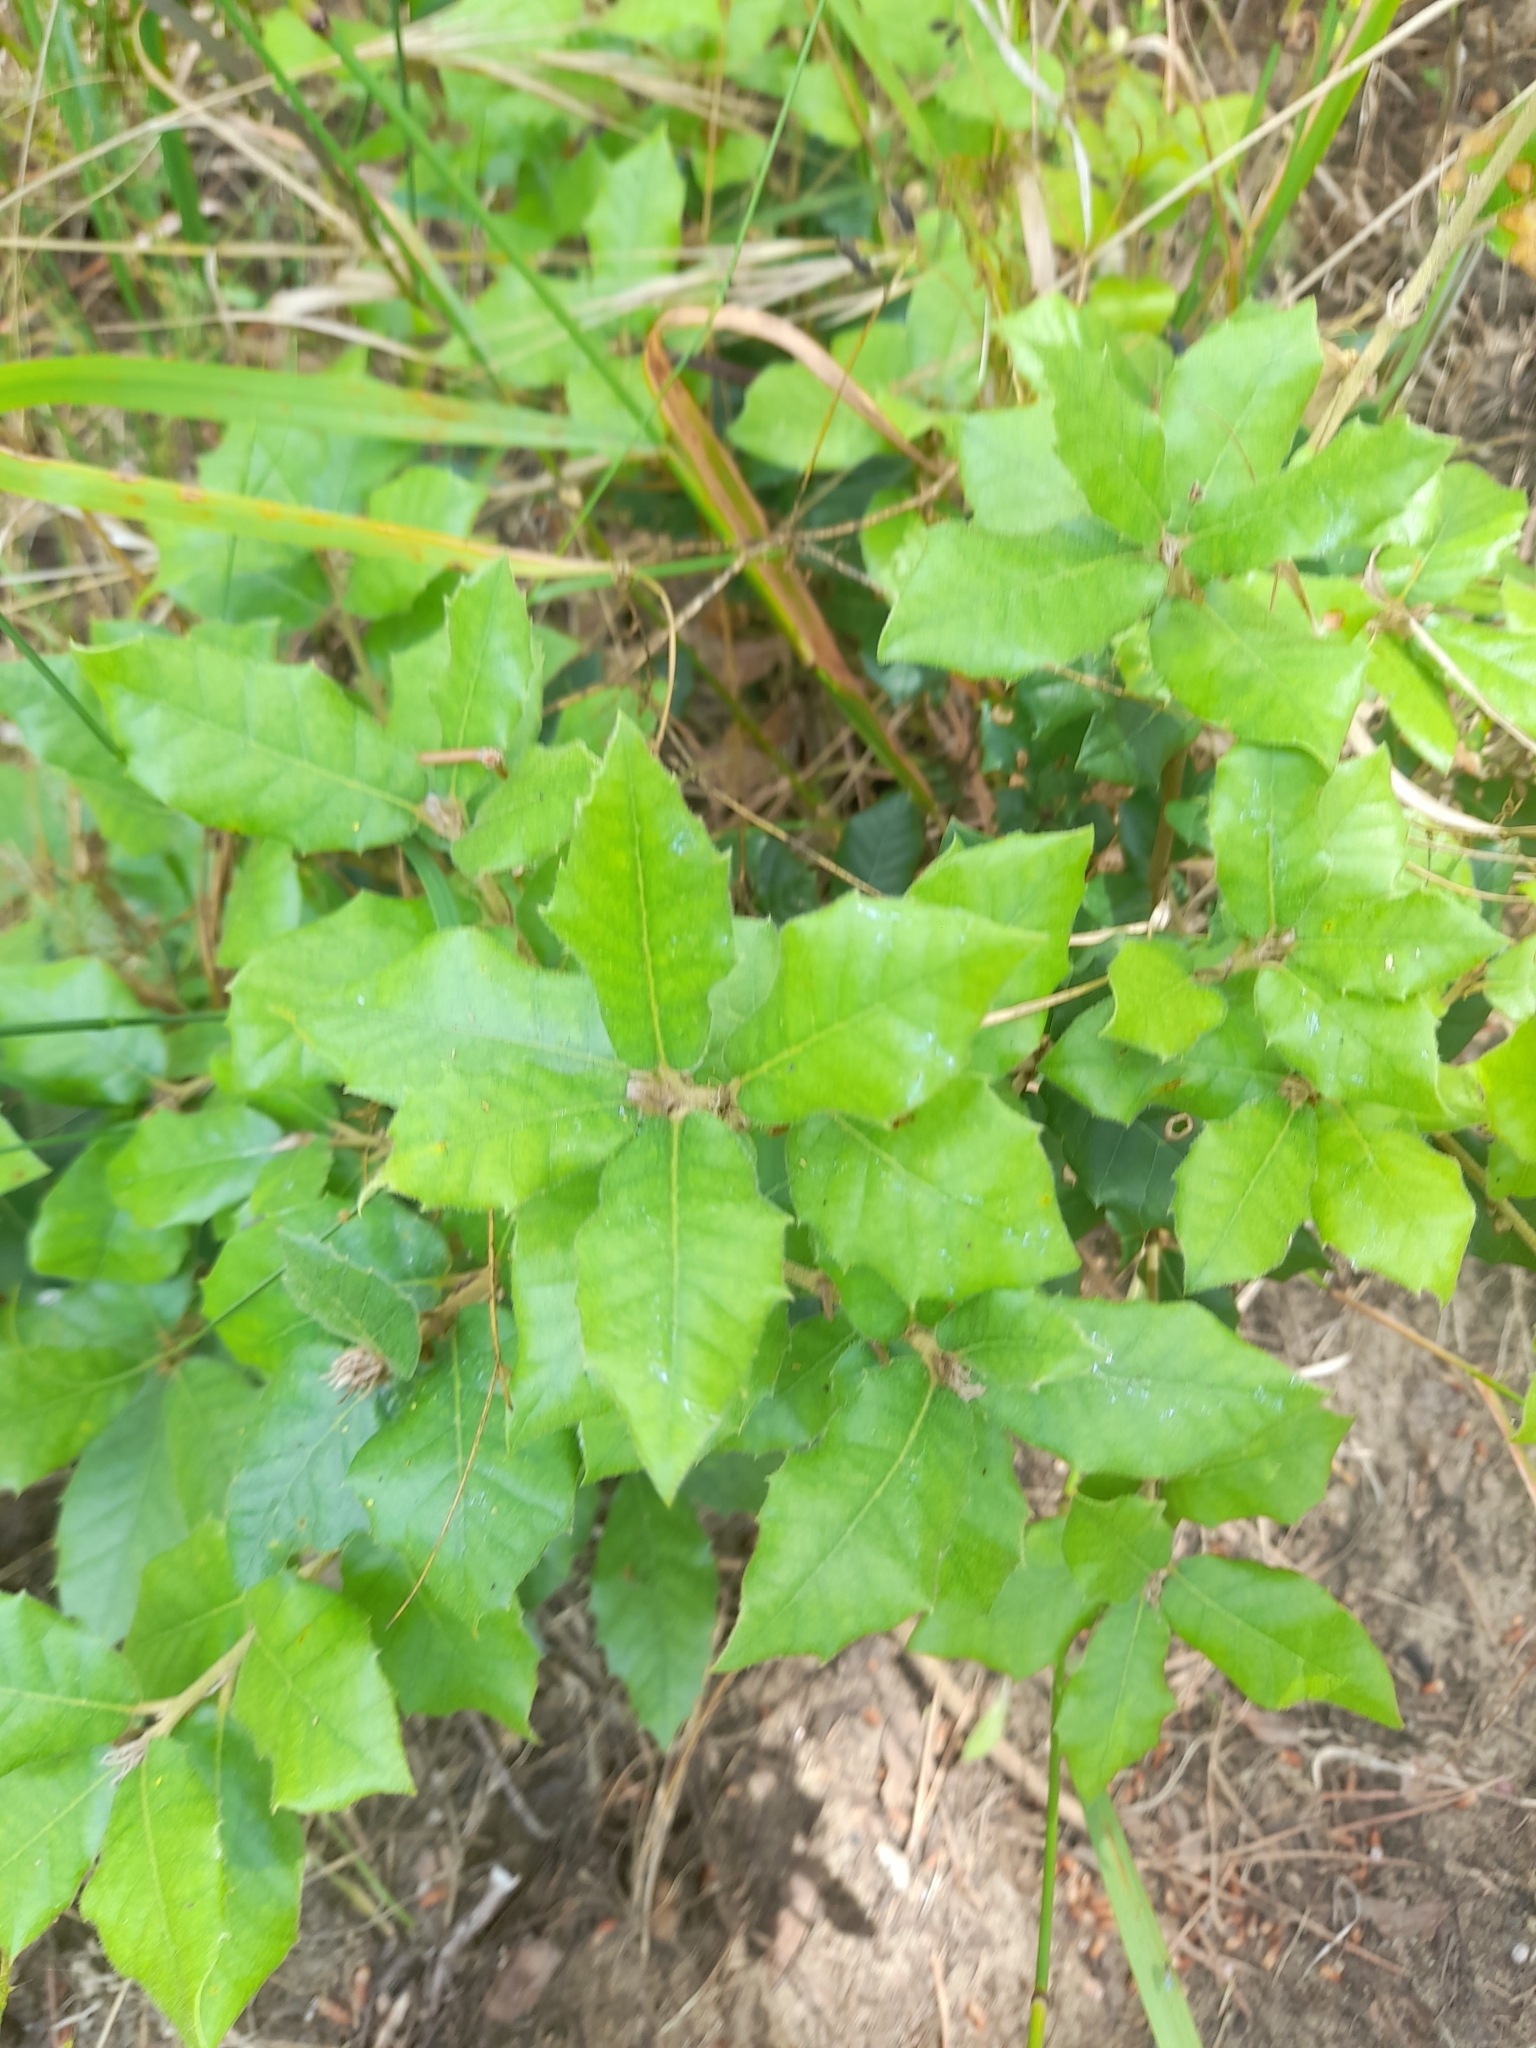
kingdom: Plantae
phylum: Tracheophyta
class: Magnoliopsida
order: Fagales
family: Fagaceae
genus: Quercus
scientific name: Quercus ilex
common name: Evergreen oak
